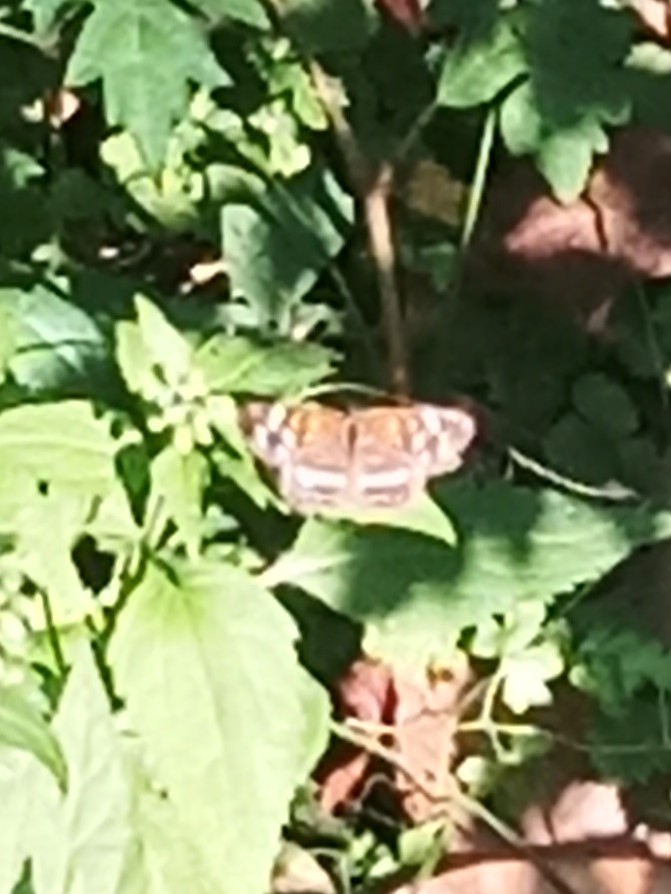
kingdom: Animalia
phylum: Arthropoda
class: Insecta
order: Lepidoptera
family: Nymphalidae
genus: Anthanassa
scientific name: Anthanassa taxana
